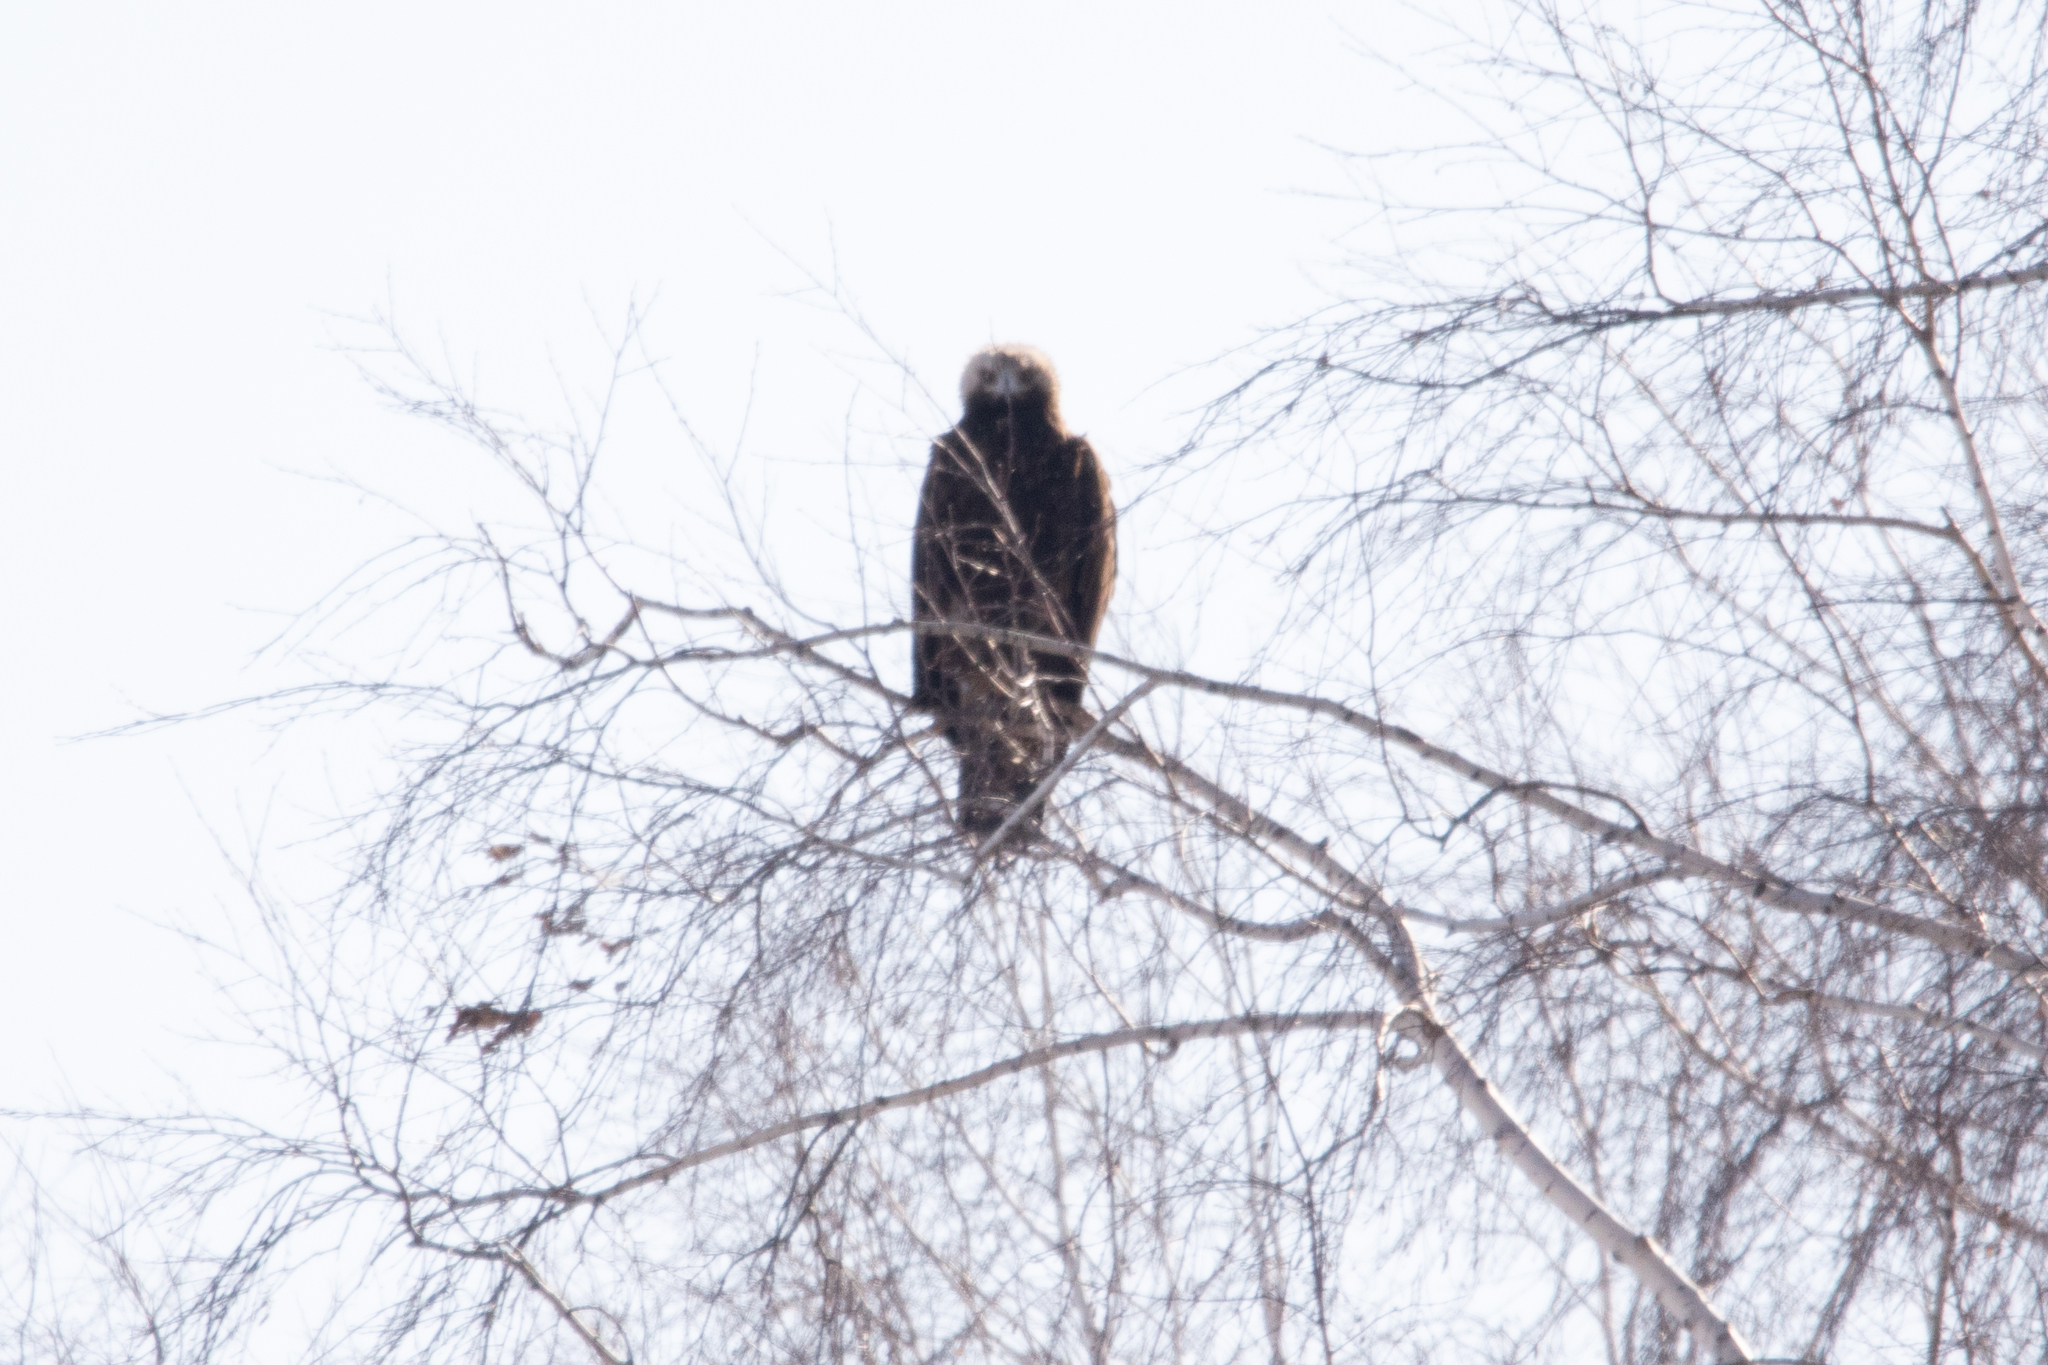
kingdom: Animalia
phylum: Chordata
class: Aves
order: Accipitriformes
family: Accipitridae
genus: Aquila
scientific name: Aquila heliaca
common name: Eastern imperial eagle
